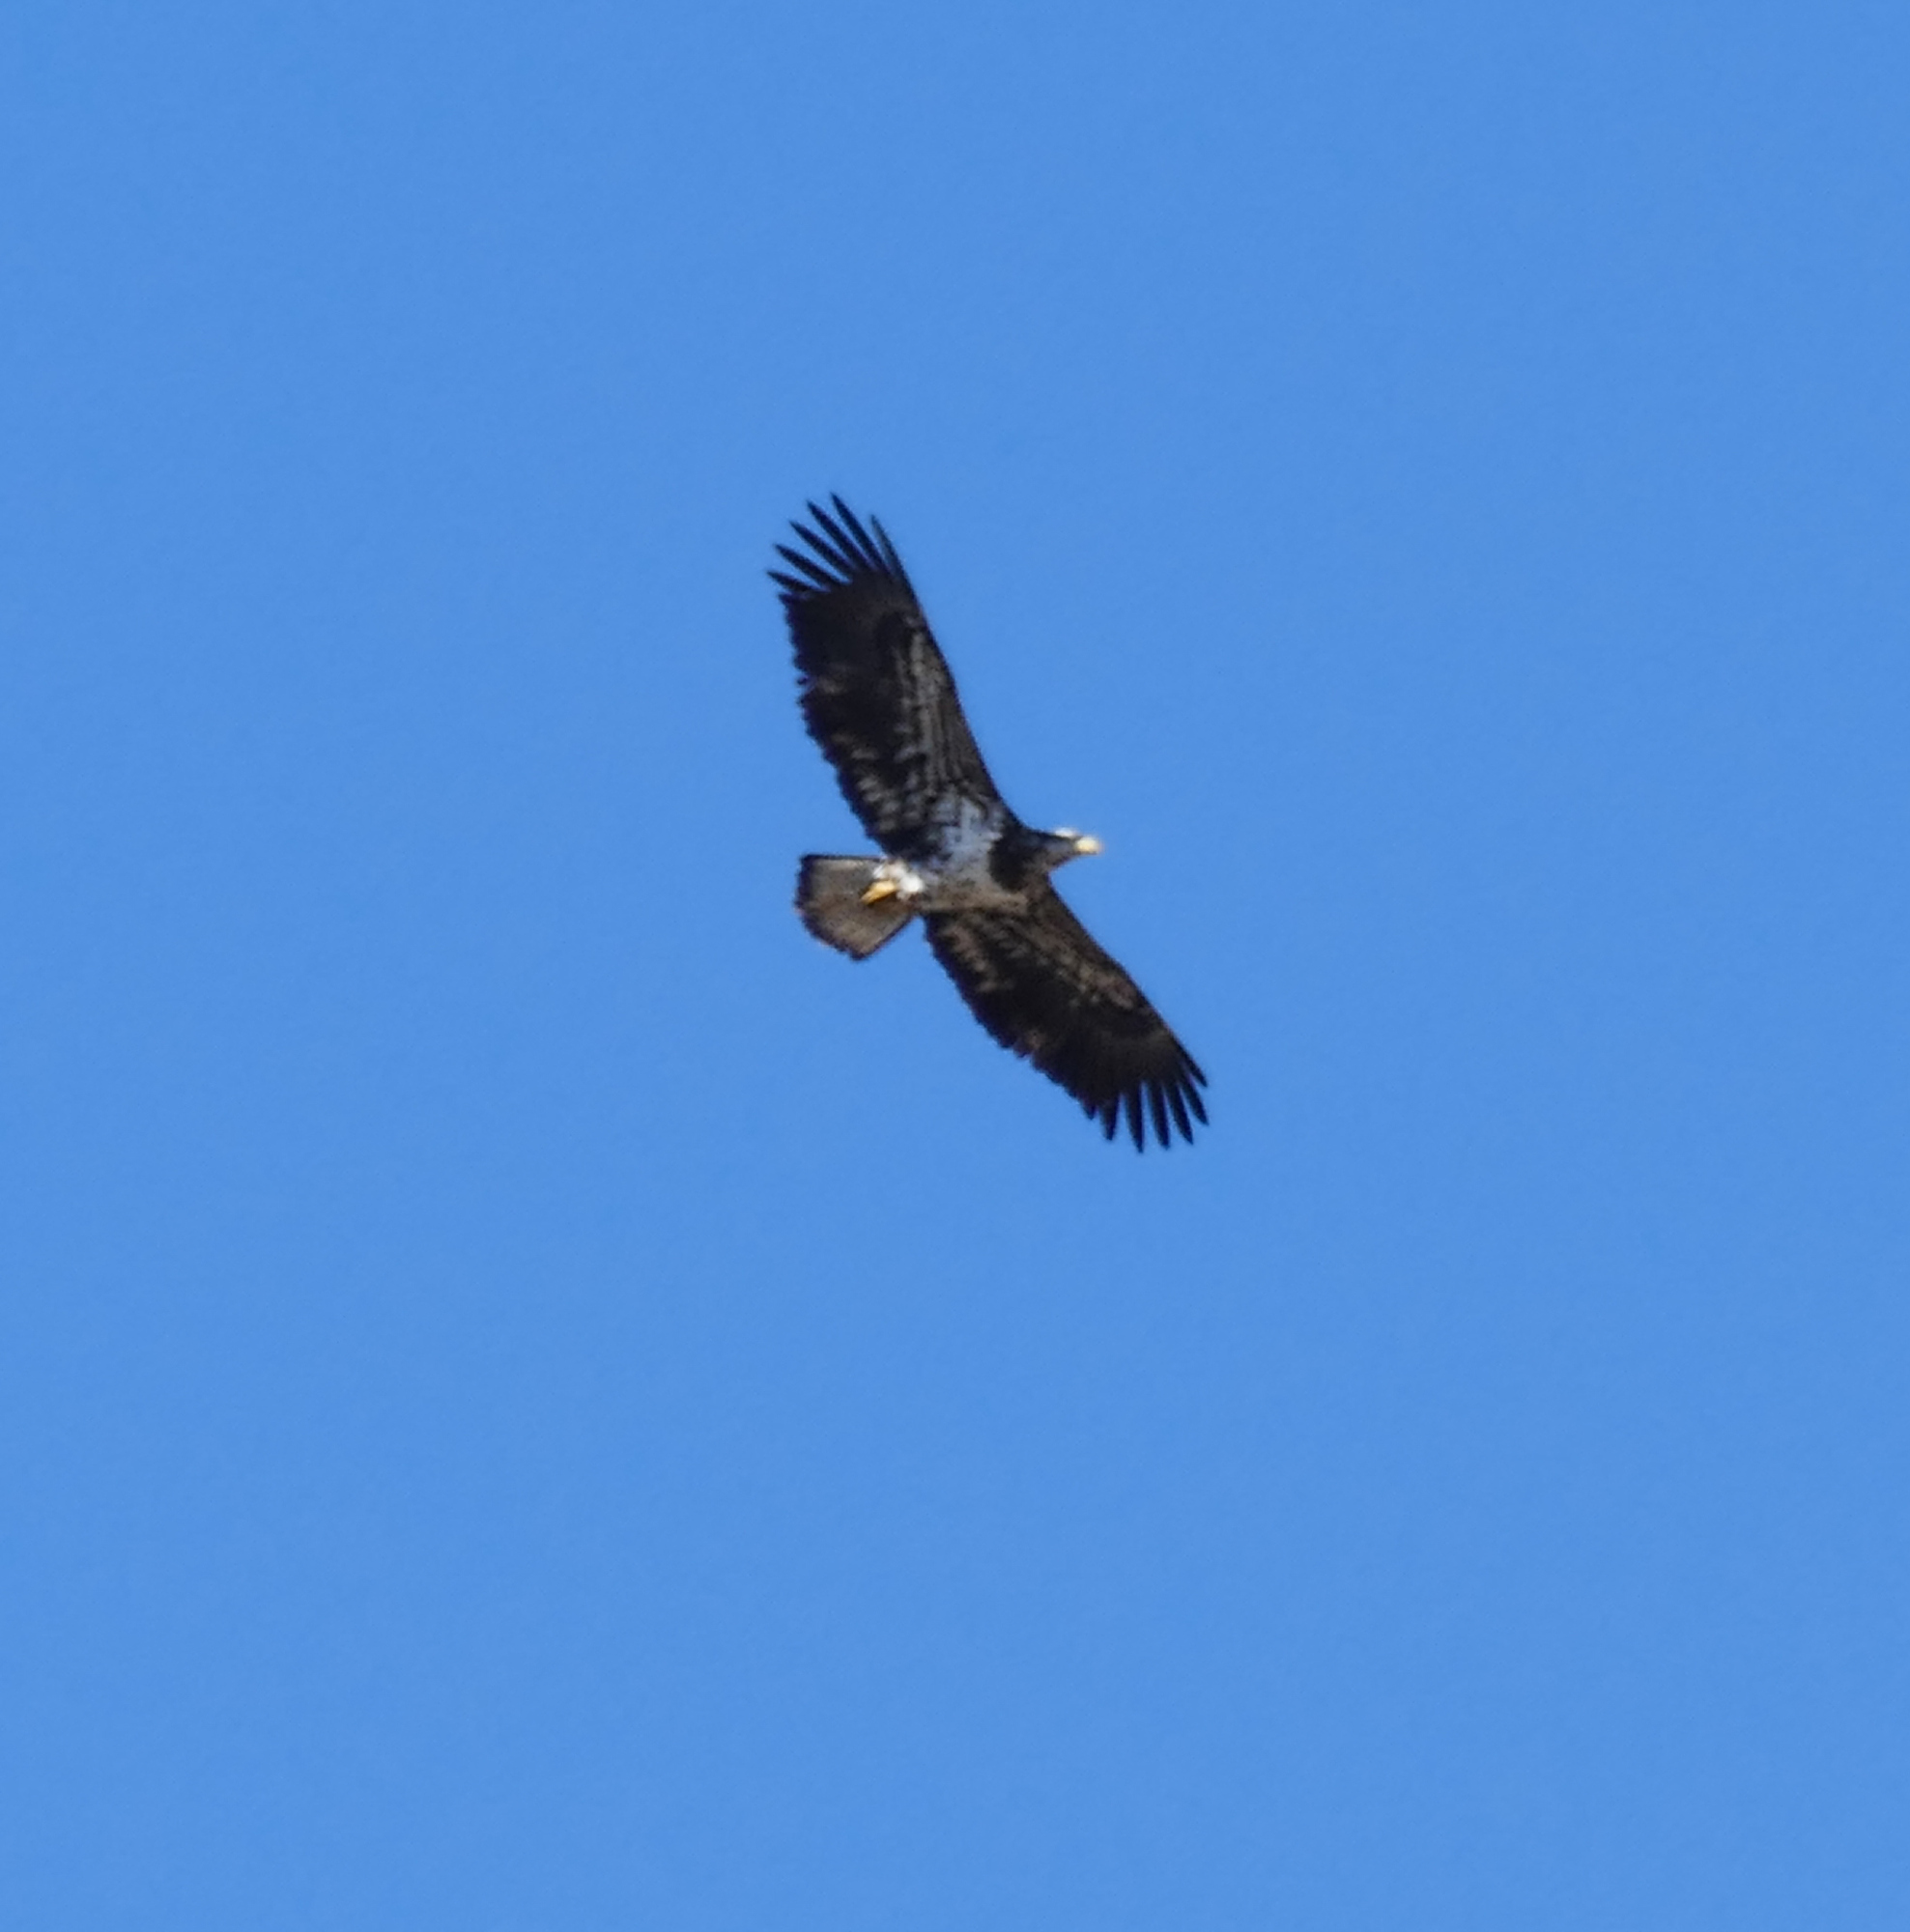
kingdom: Animalia
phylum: Chordata
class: Aves
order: Accipitriformes
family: Accipitridae
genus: Haliaeetus
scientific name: Haliaeetus leucocephalus
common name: Bald eagle
